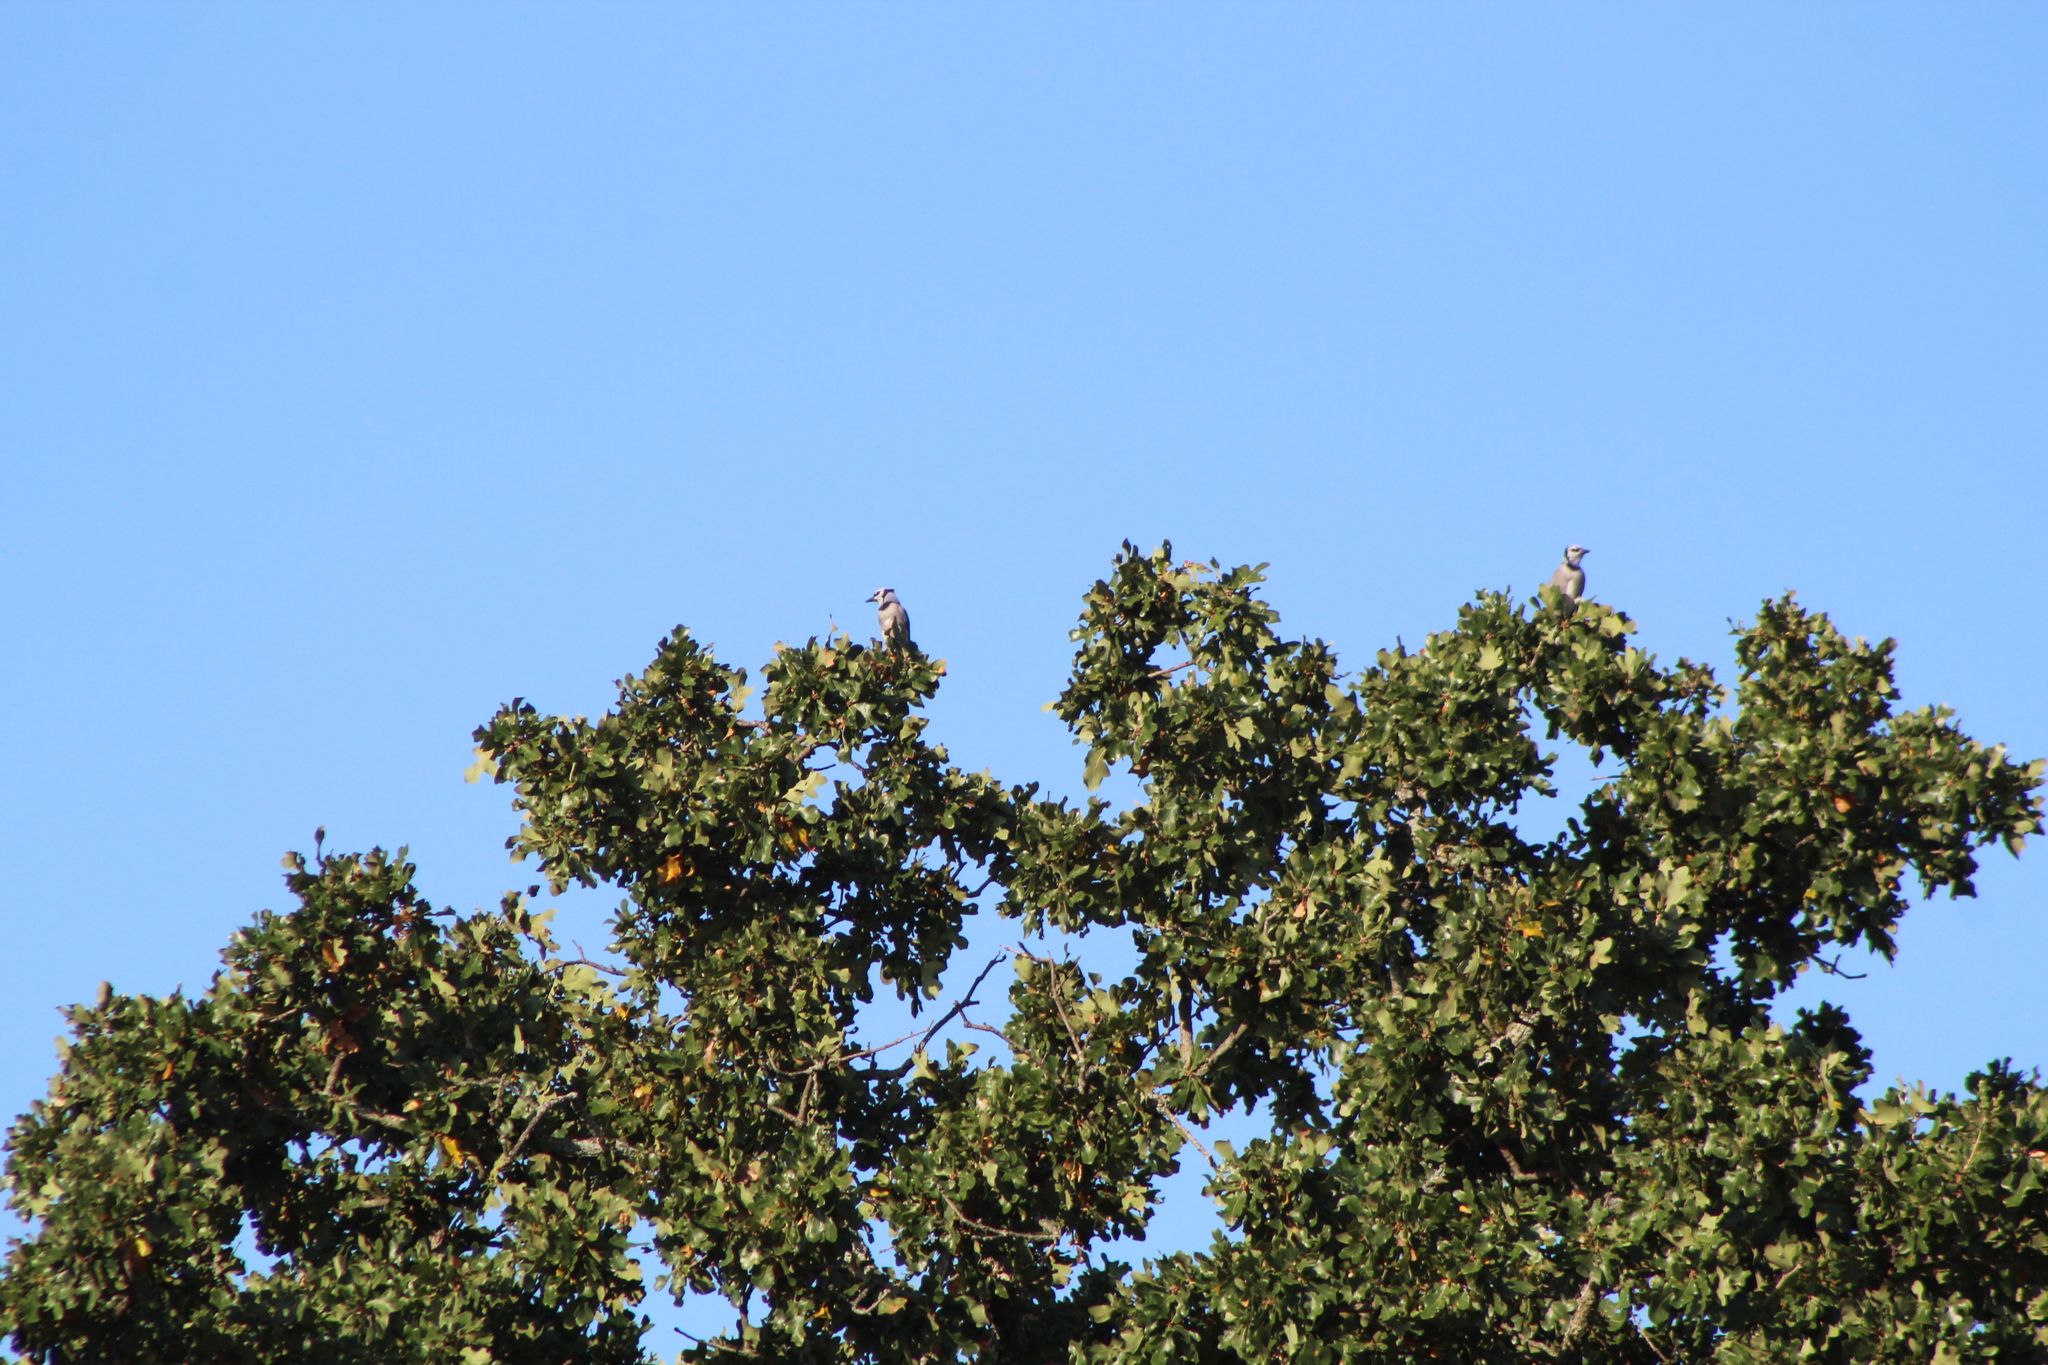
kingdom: Animalia
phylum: Chordata
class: Aves
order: Passeriformes
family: Corvidae
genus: Cyanocitta
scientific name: Cyanocitta cristata
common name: Blue jay
